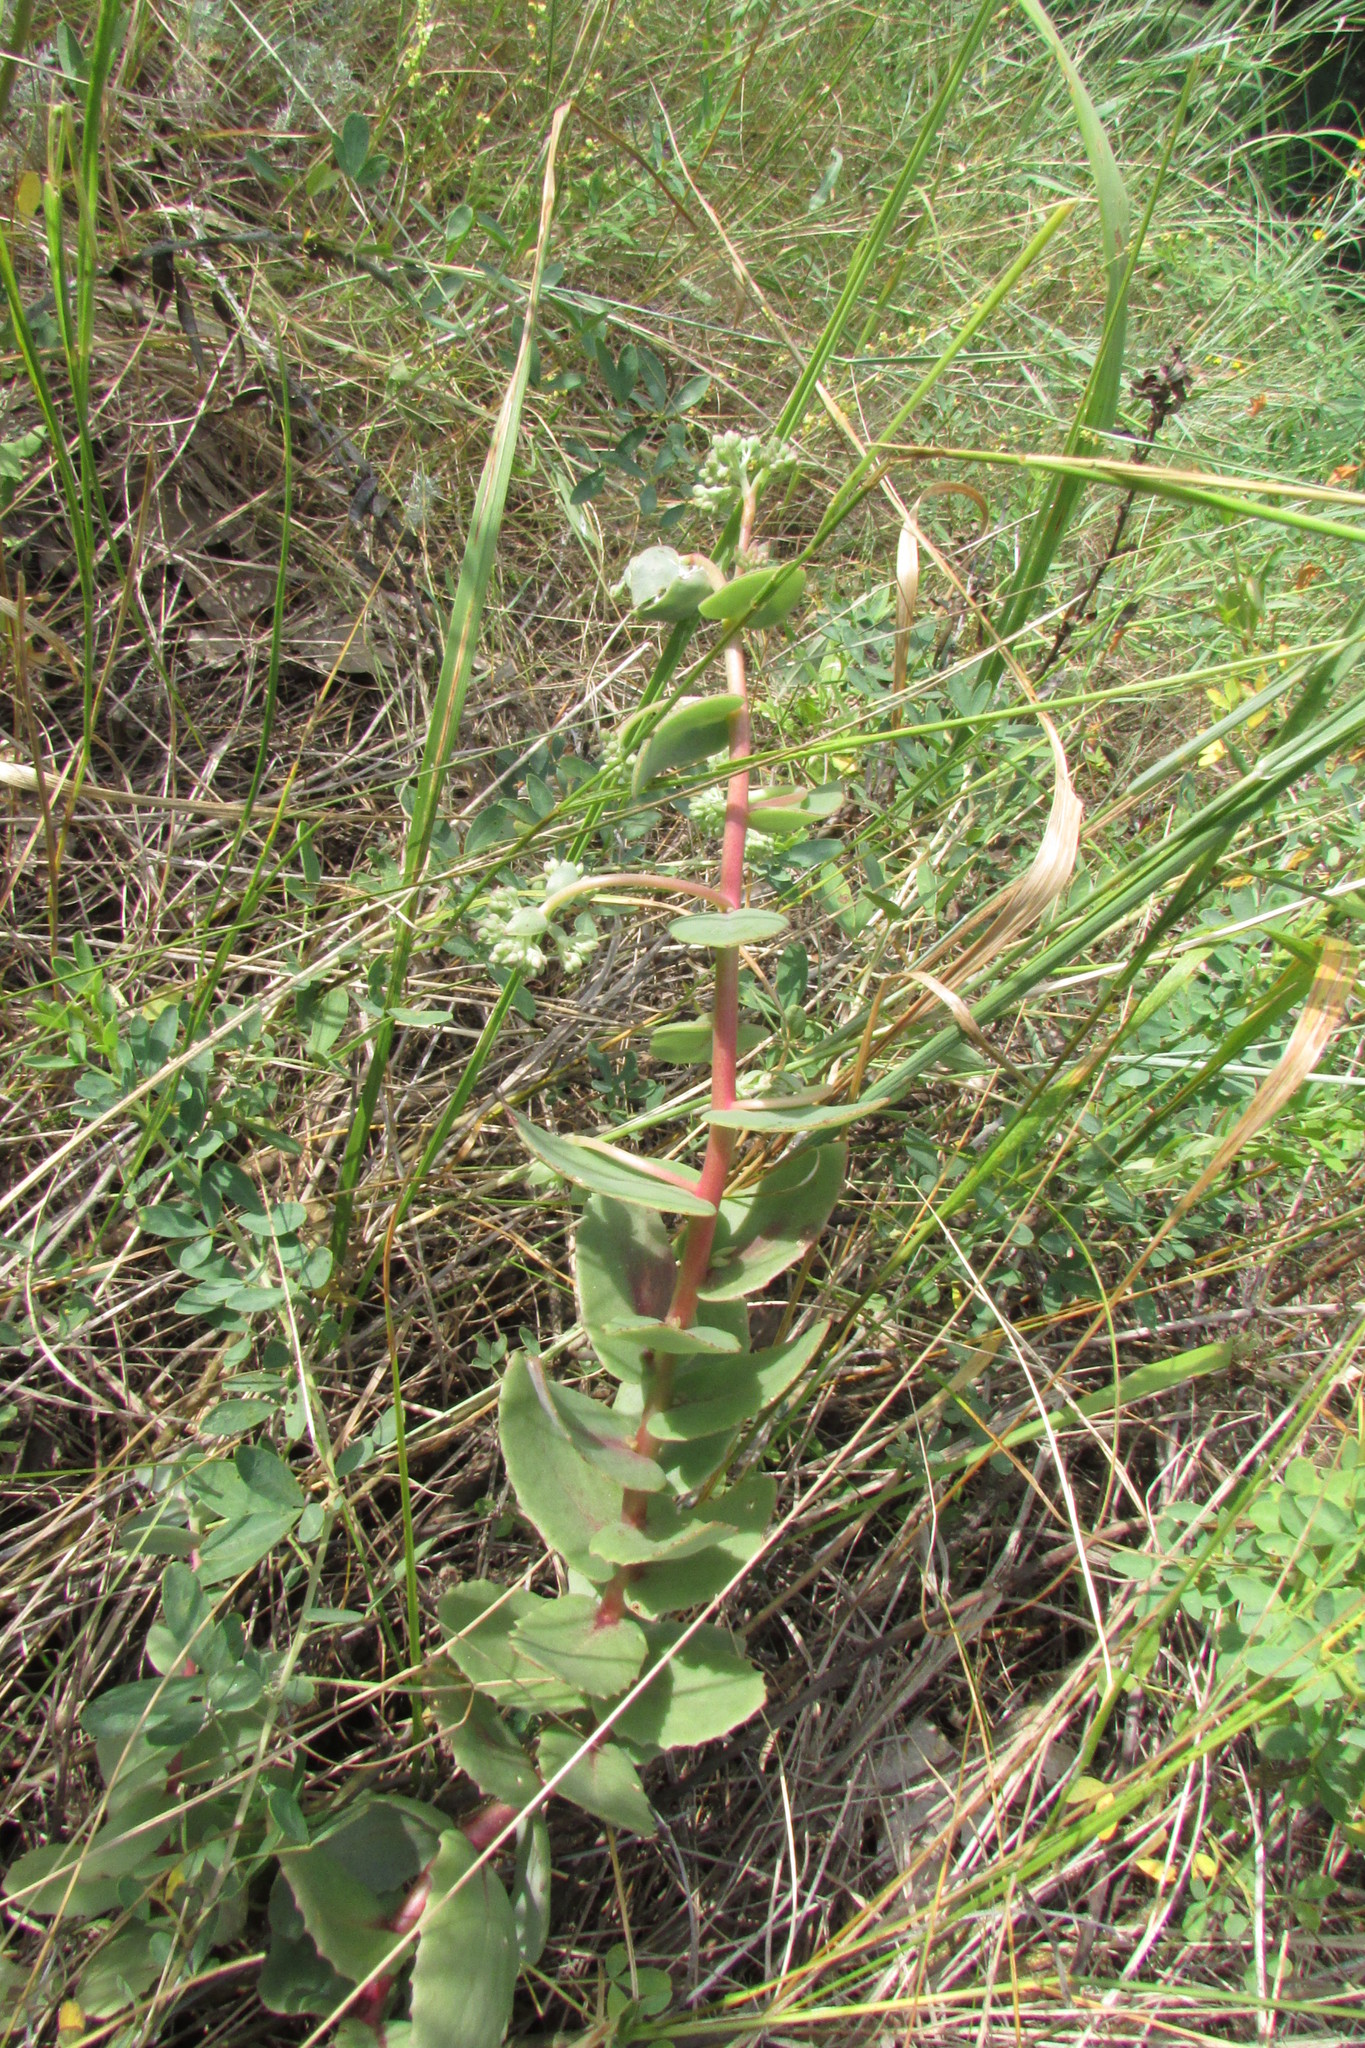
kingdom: Plantae
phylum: Tracheophyta
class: Magnoliopsida
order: Saxifragales
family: Crassulaceae
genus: Hylotelephium
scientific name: Hylotelephium maximum
